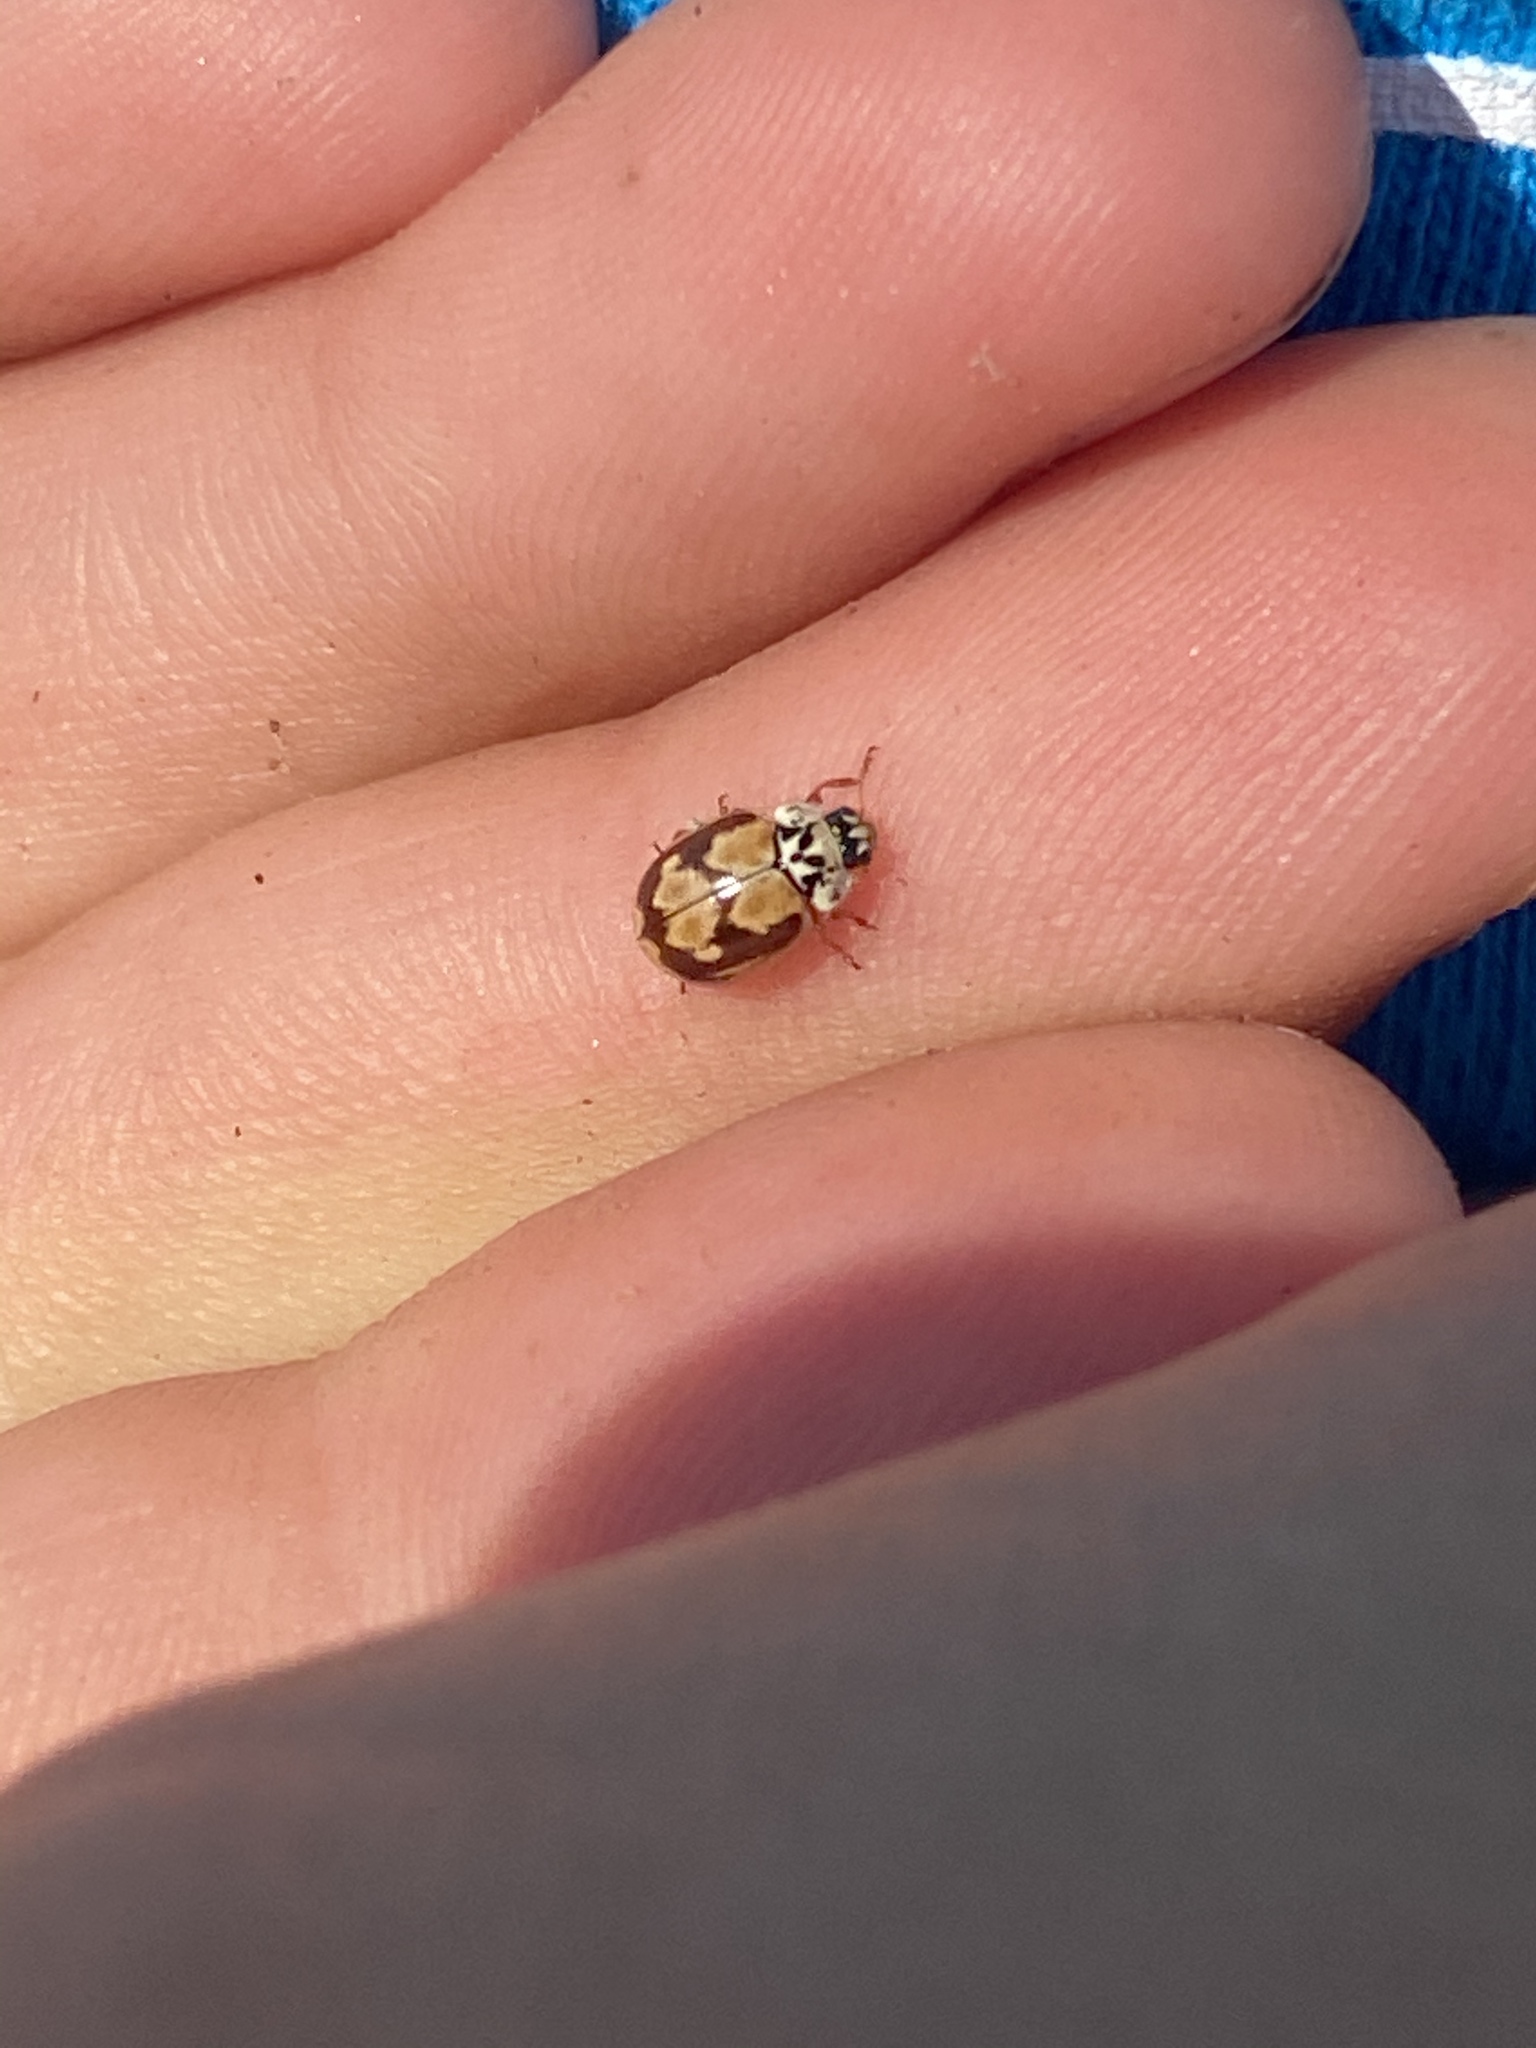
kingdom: Animalia
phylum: Arthropoda
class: Insecta
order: Coleoptera
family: Coccinellidae
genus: Mulsantina
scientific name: Mulsantina picta
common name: Painted ladybird
